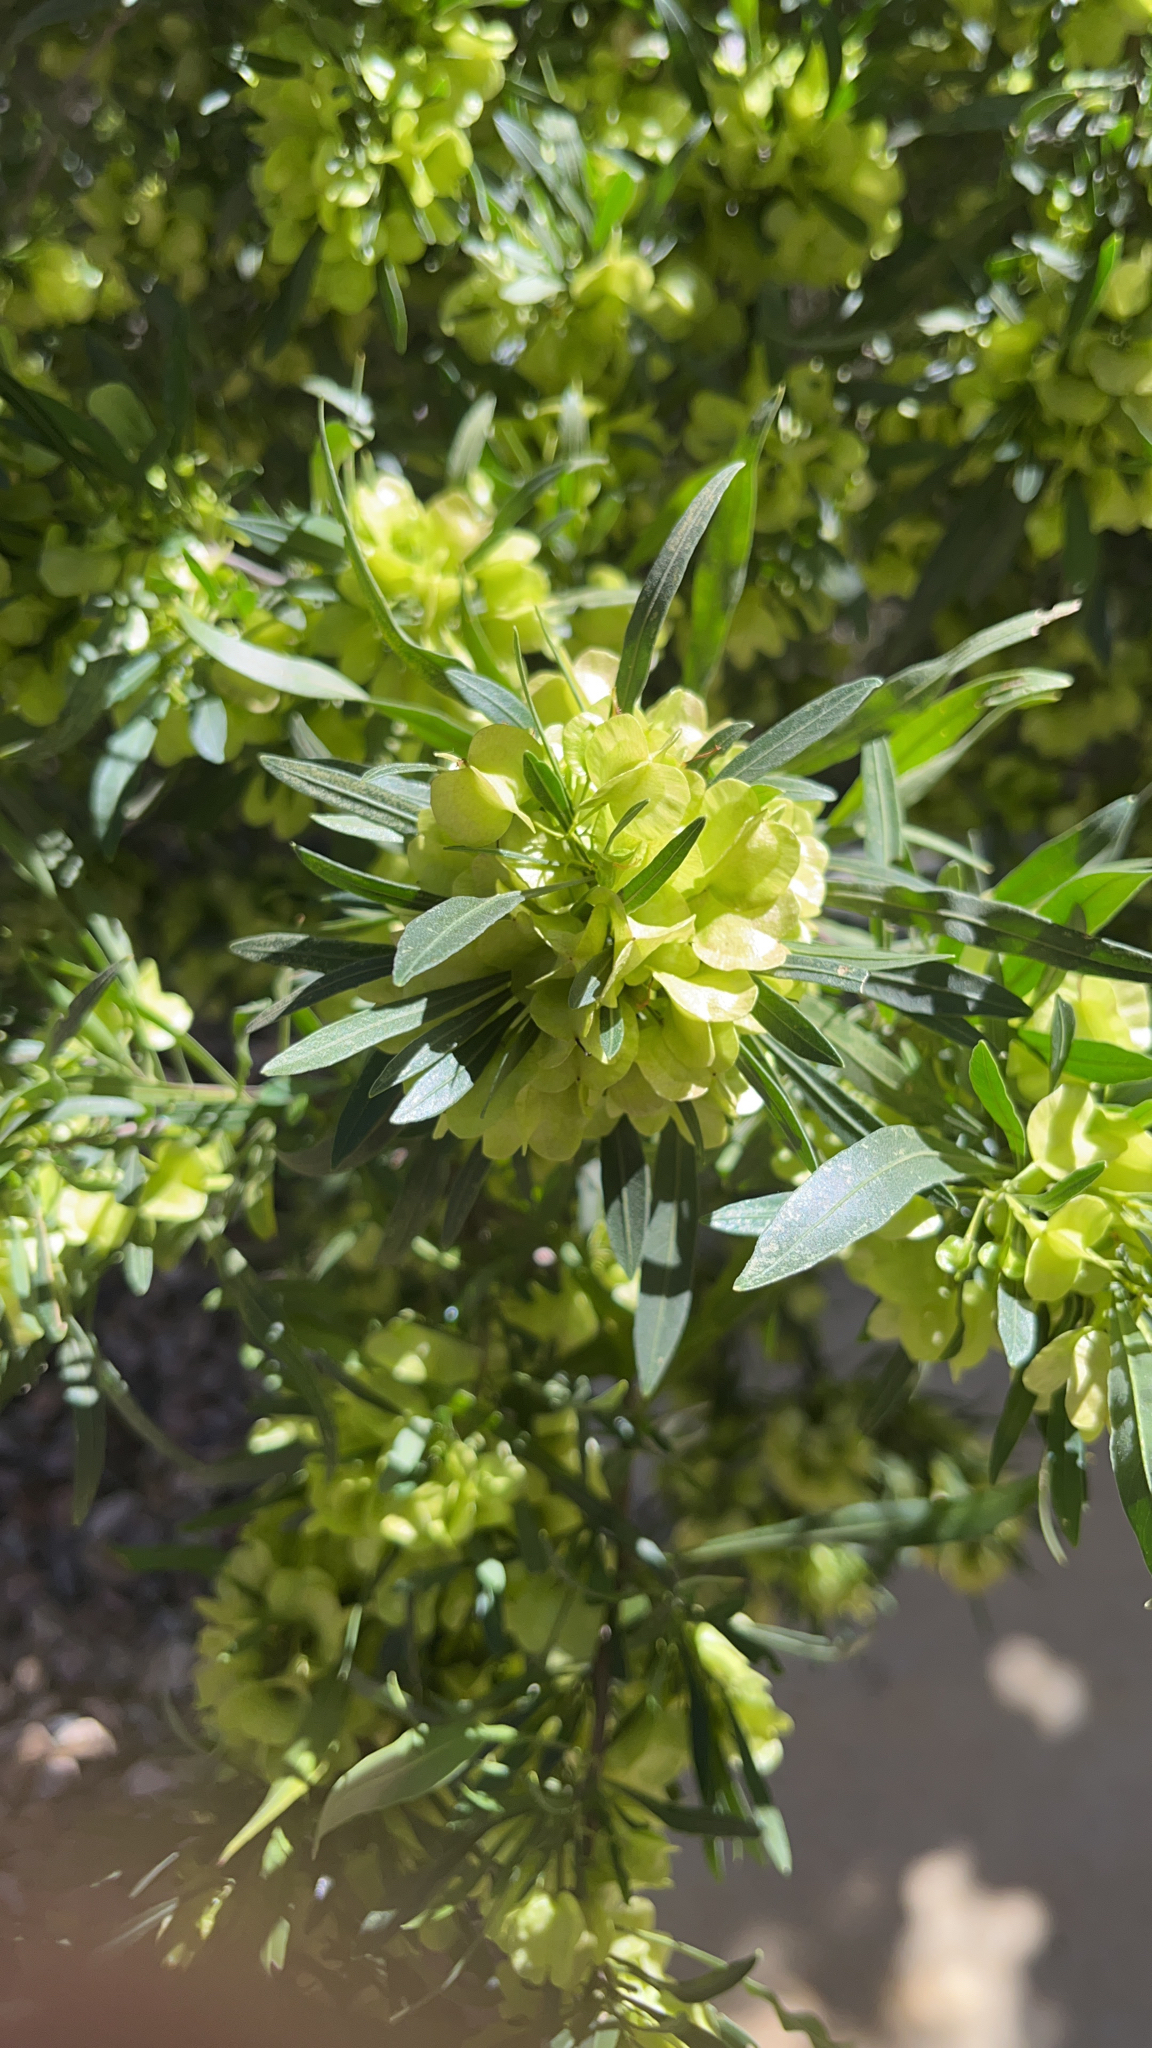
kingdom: Plantae
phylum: Tracheophyta
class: Magnoliopsida
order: Sapindales
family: Sapindaceae
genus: Dodonaea
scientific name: Dodonaea viscosa
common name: Hopbush
